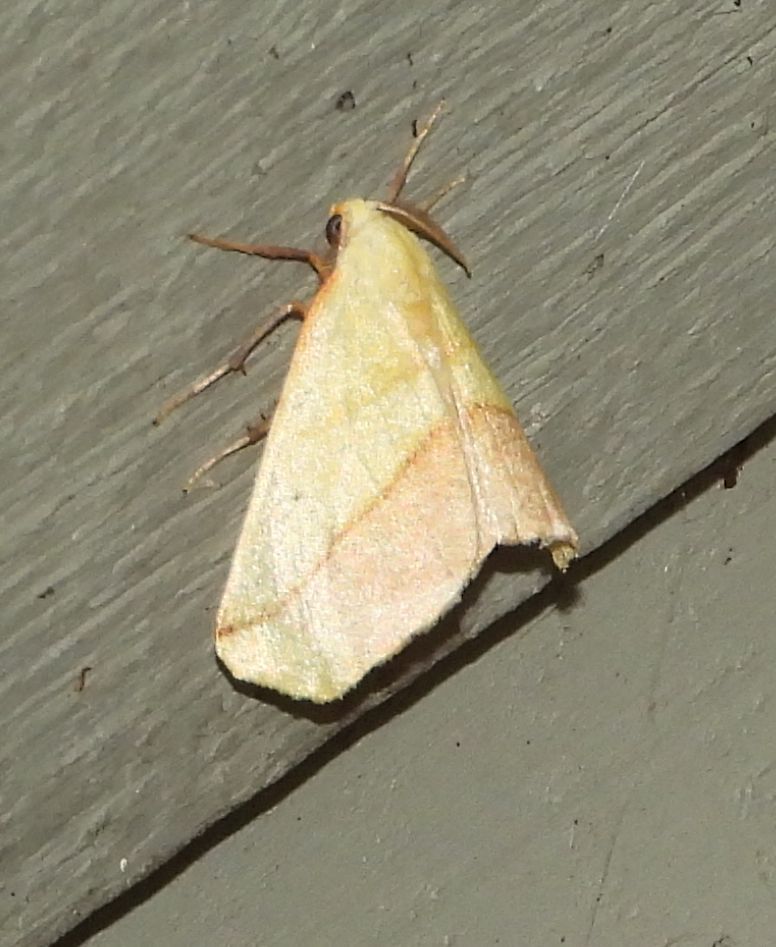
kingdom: Animalia
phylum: Arthropoda
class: Insecta
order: Lepidoptera
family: Geometridae
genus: Sicya
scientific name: Sicya macularia
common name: Sharp-lined yellow
